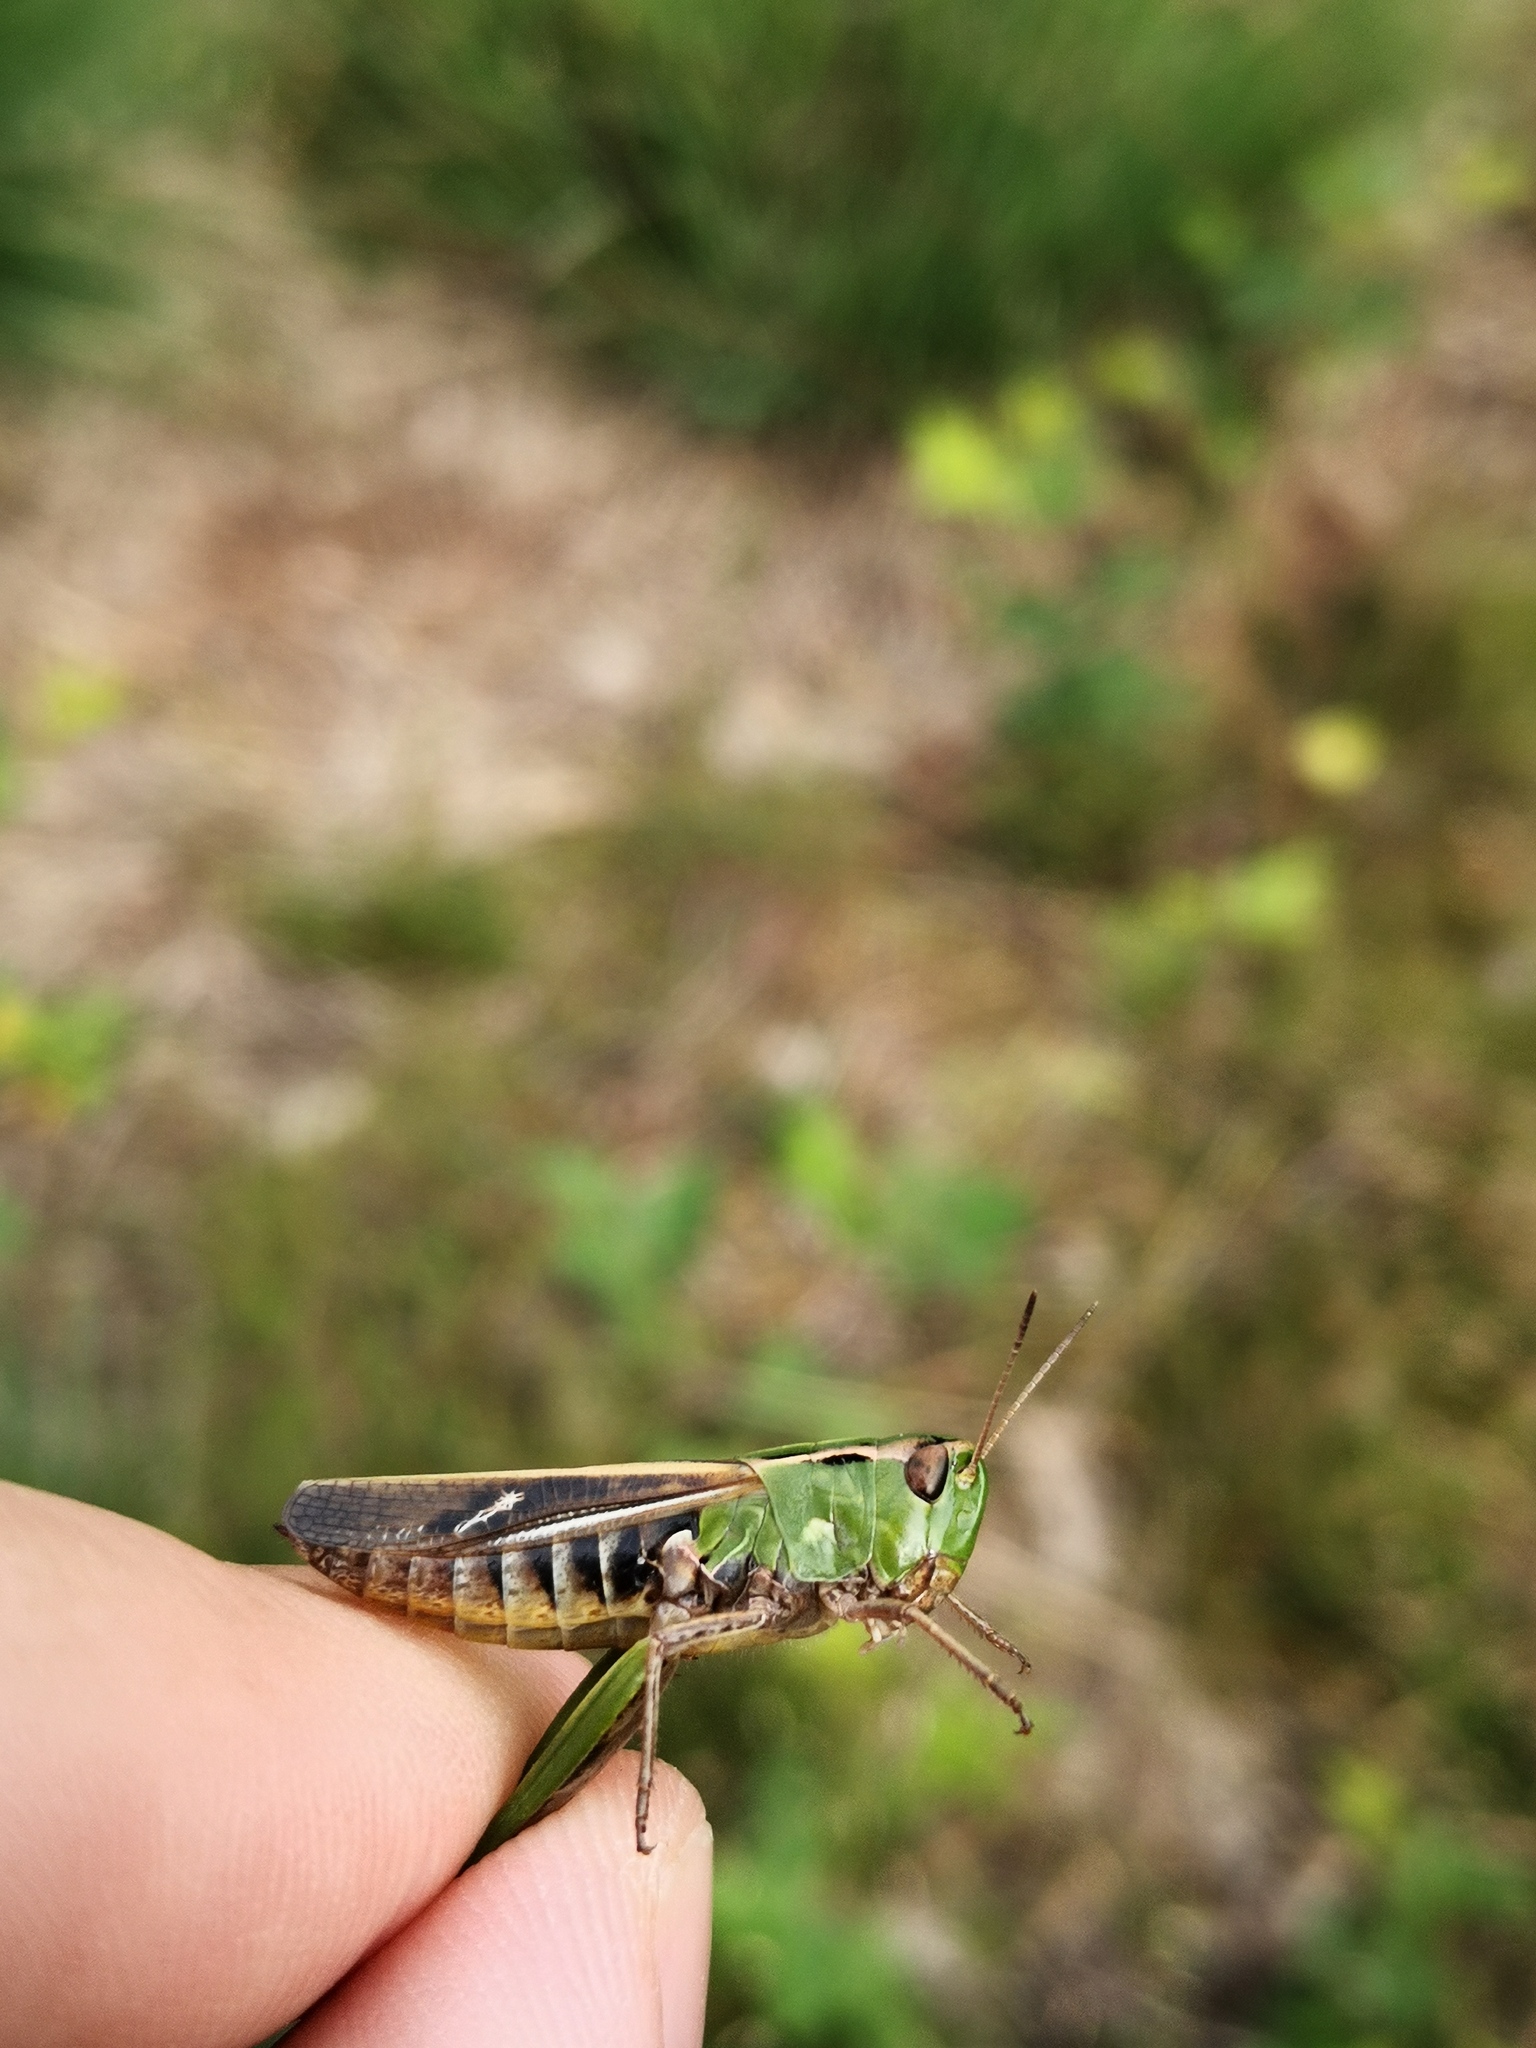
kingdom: Animalia
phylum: Arthropoda
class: Insecta
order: Orthoptera
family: Acrididae
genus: Stenobothrus
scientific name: Stenobothrus lineatus
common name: Stripe-winged grasshopper
